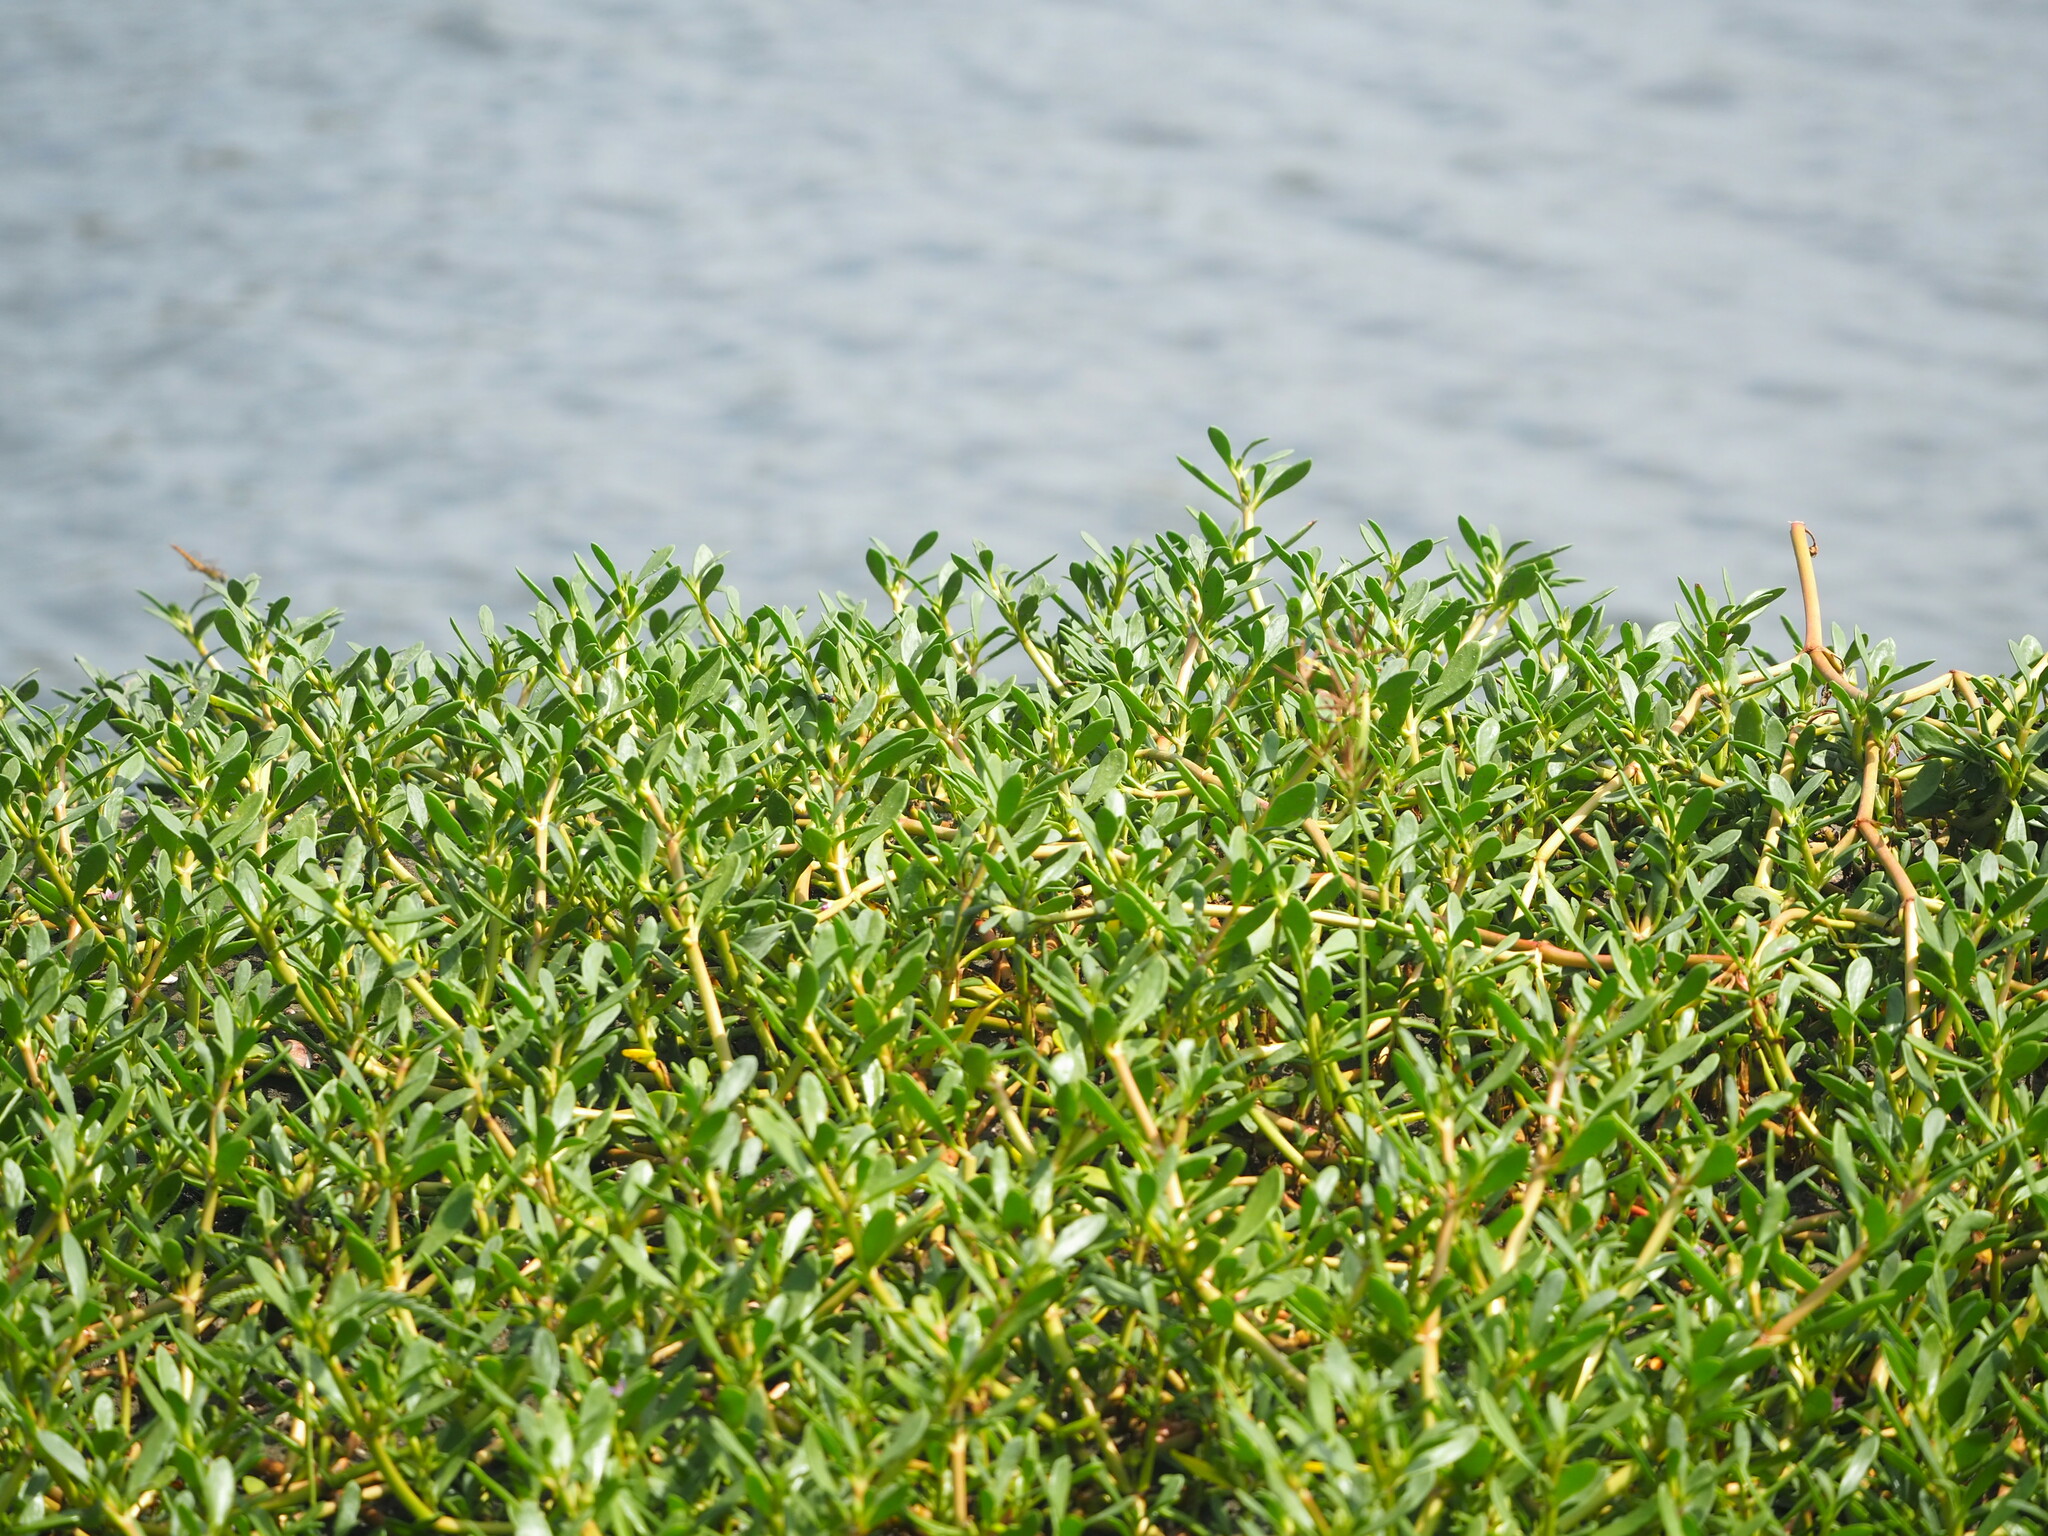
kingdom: Plantae
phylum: Tracheophyta
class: Magnoliopsida
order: Caryophyllales
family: Aizoaceae
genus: Sesuvium
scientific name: Sesuvium portulacastrum
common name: Sea-purslane
